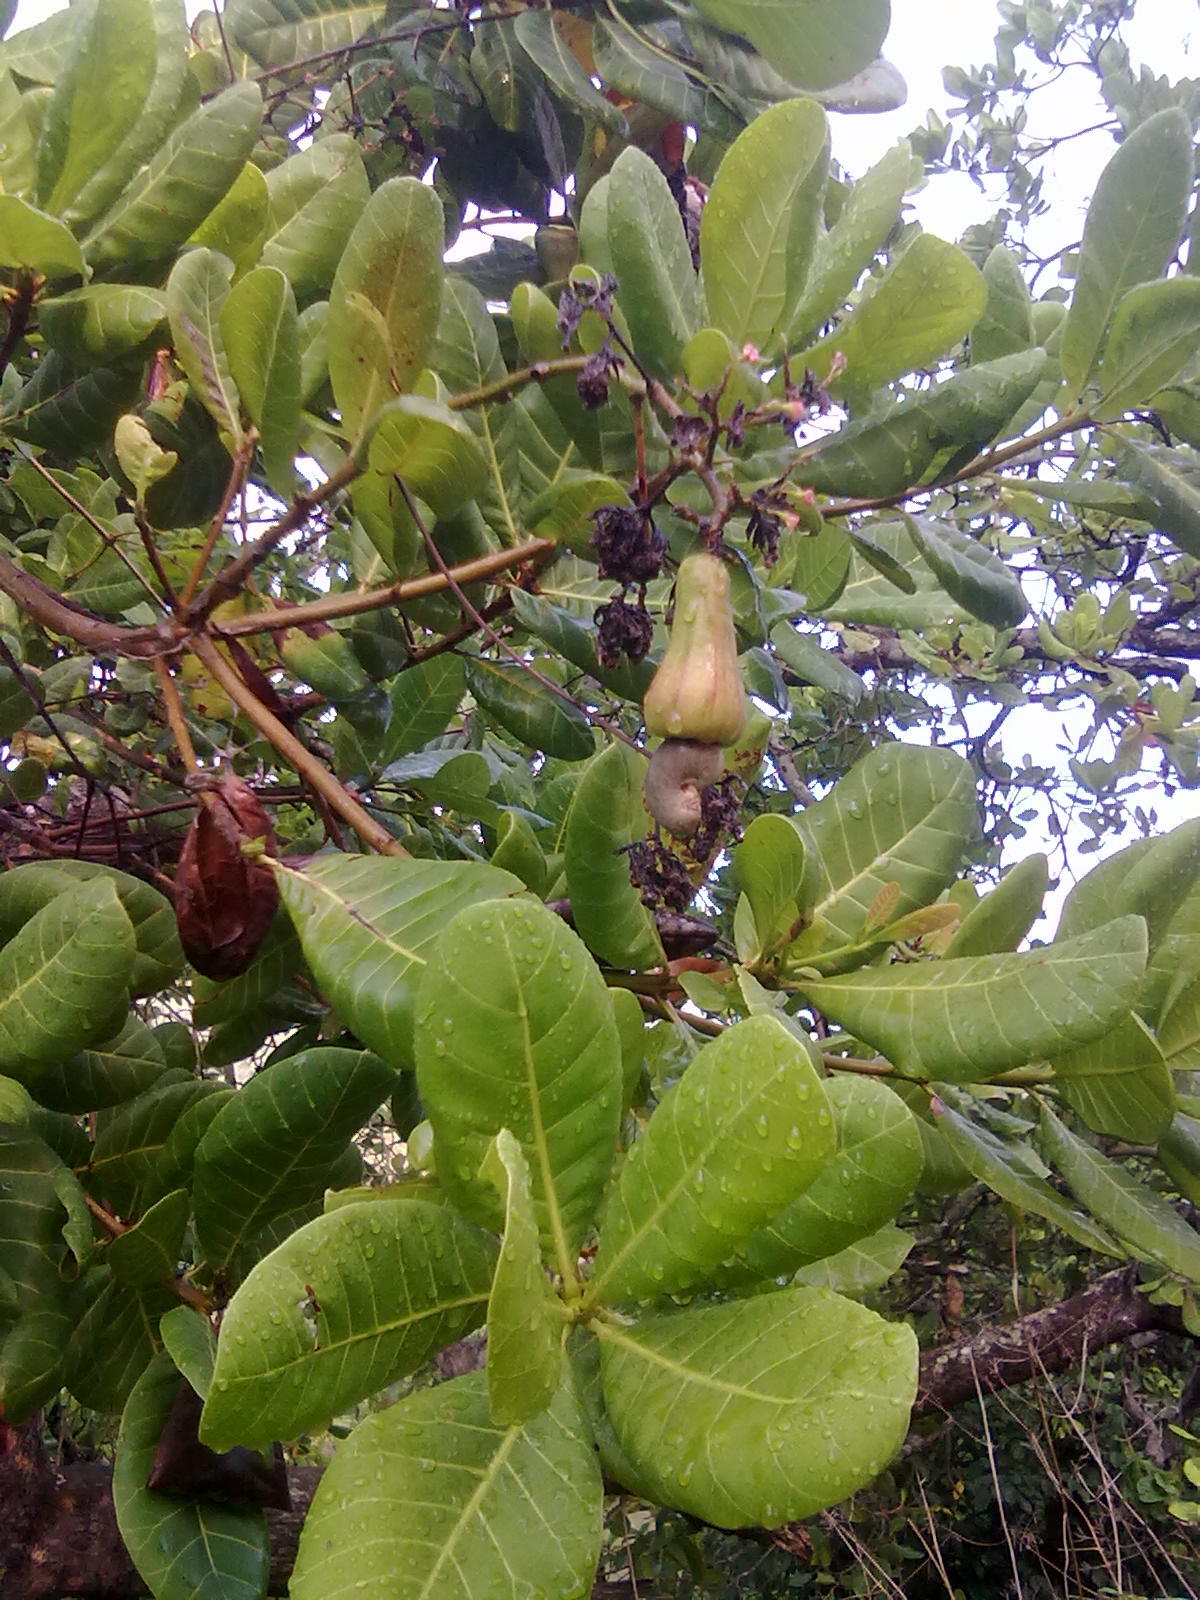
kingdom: Plantae
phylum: Tracheophyta
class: Magnoliopsida
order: Sapindales
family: Anacardiaceae
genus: Anacardium
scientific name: Anacardium occidentale
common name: Cashew
